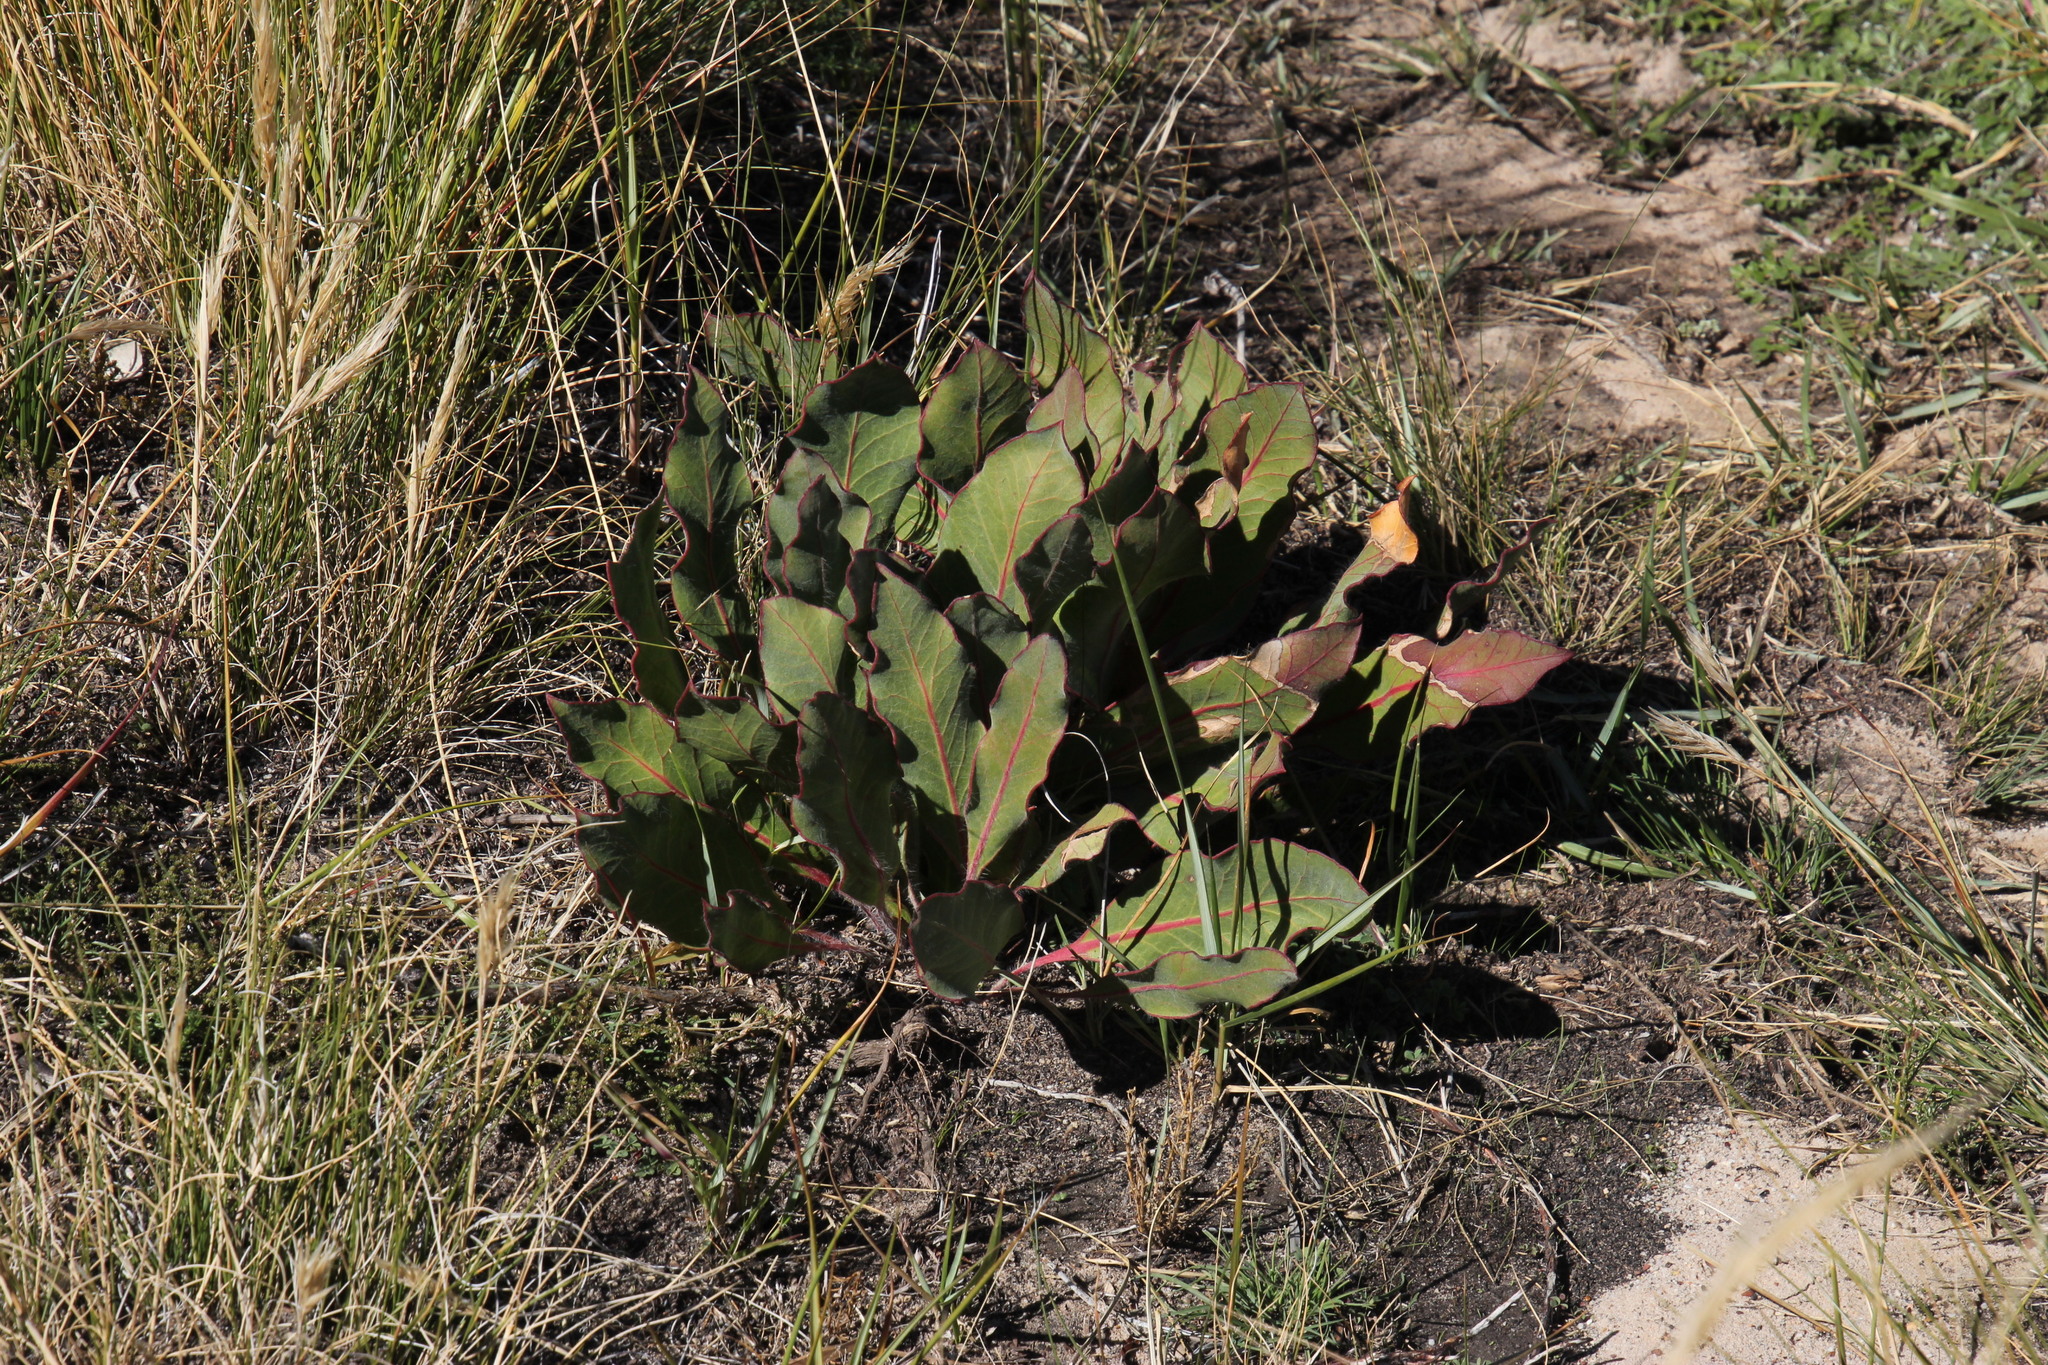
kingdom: Plantae
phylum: Tracheophyta
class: Magnoliopsida
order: Proteales
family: Proteaceae
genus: Protea
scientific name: Protea scolopendriifolia
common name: Harts-tongue-fern sugarbush
